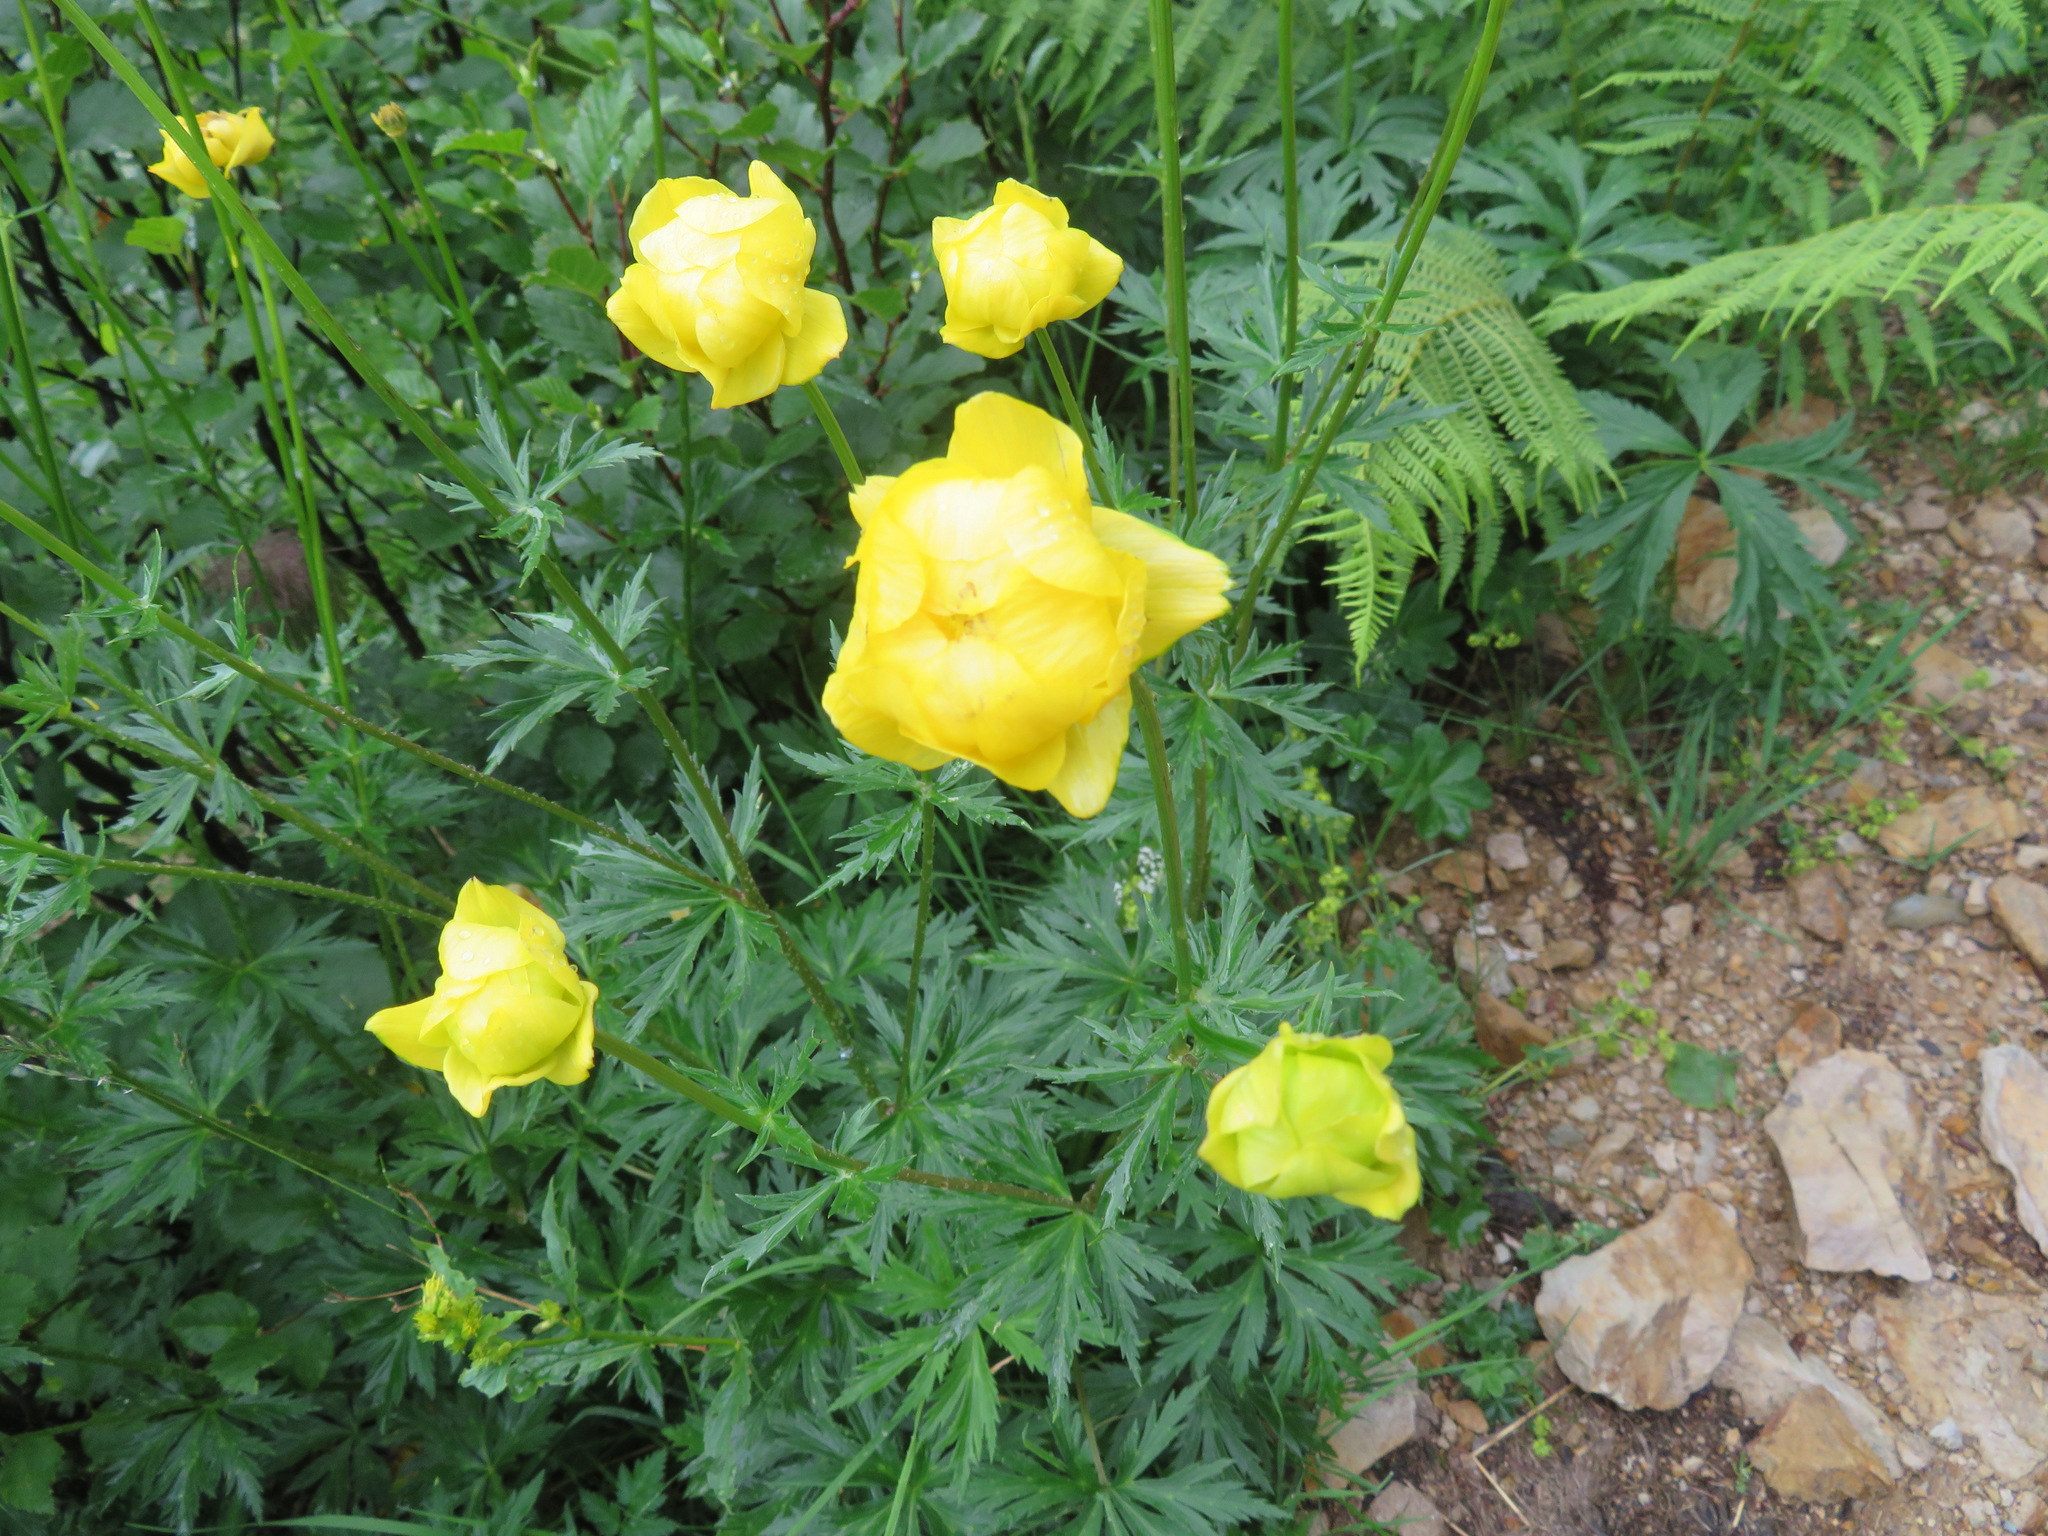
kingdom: Plantae
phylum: Tracheophyta
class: Magnoliopsida
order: Ranunculales
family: Ranunculaceae
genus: Trollius
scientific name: Trollius europaeus
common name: European globeflower
